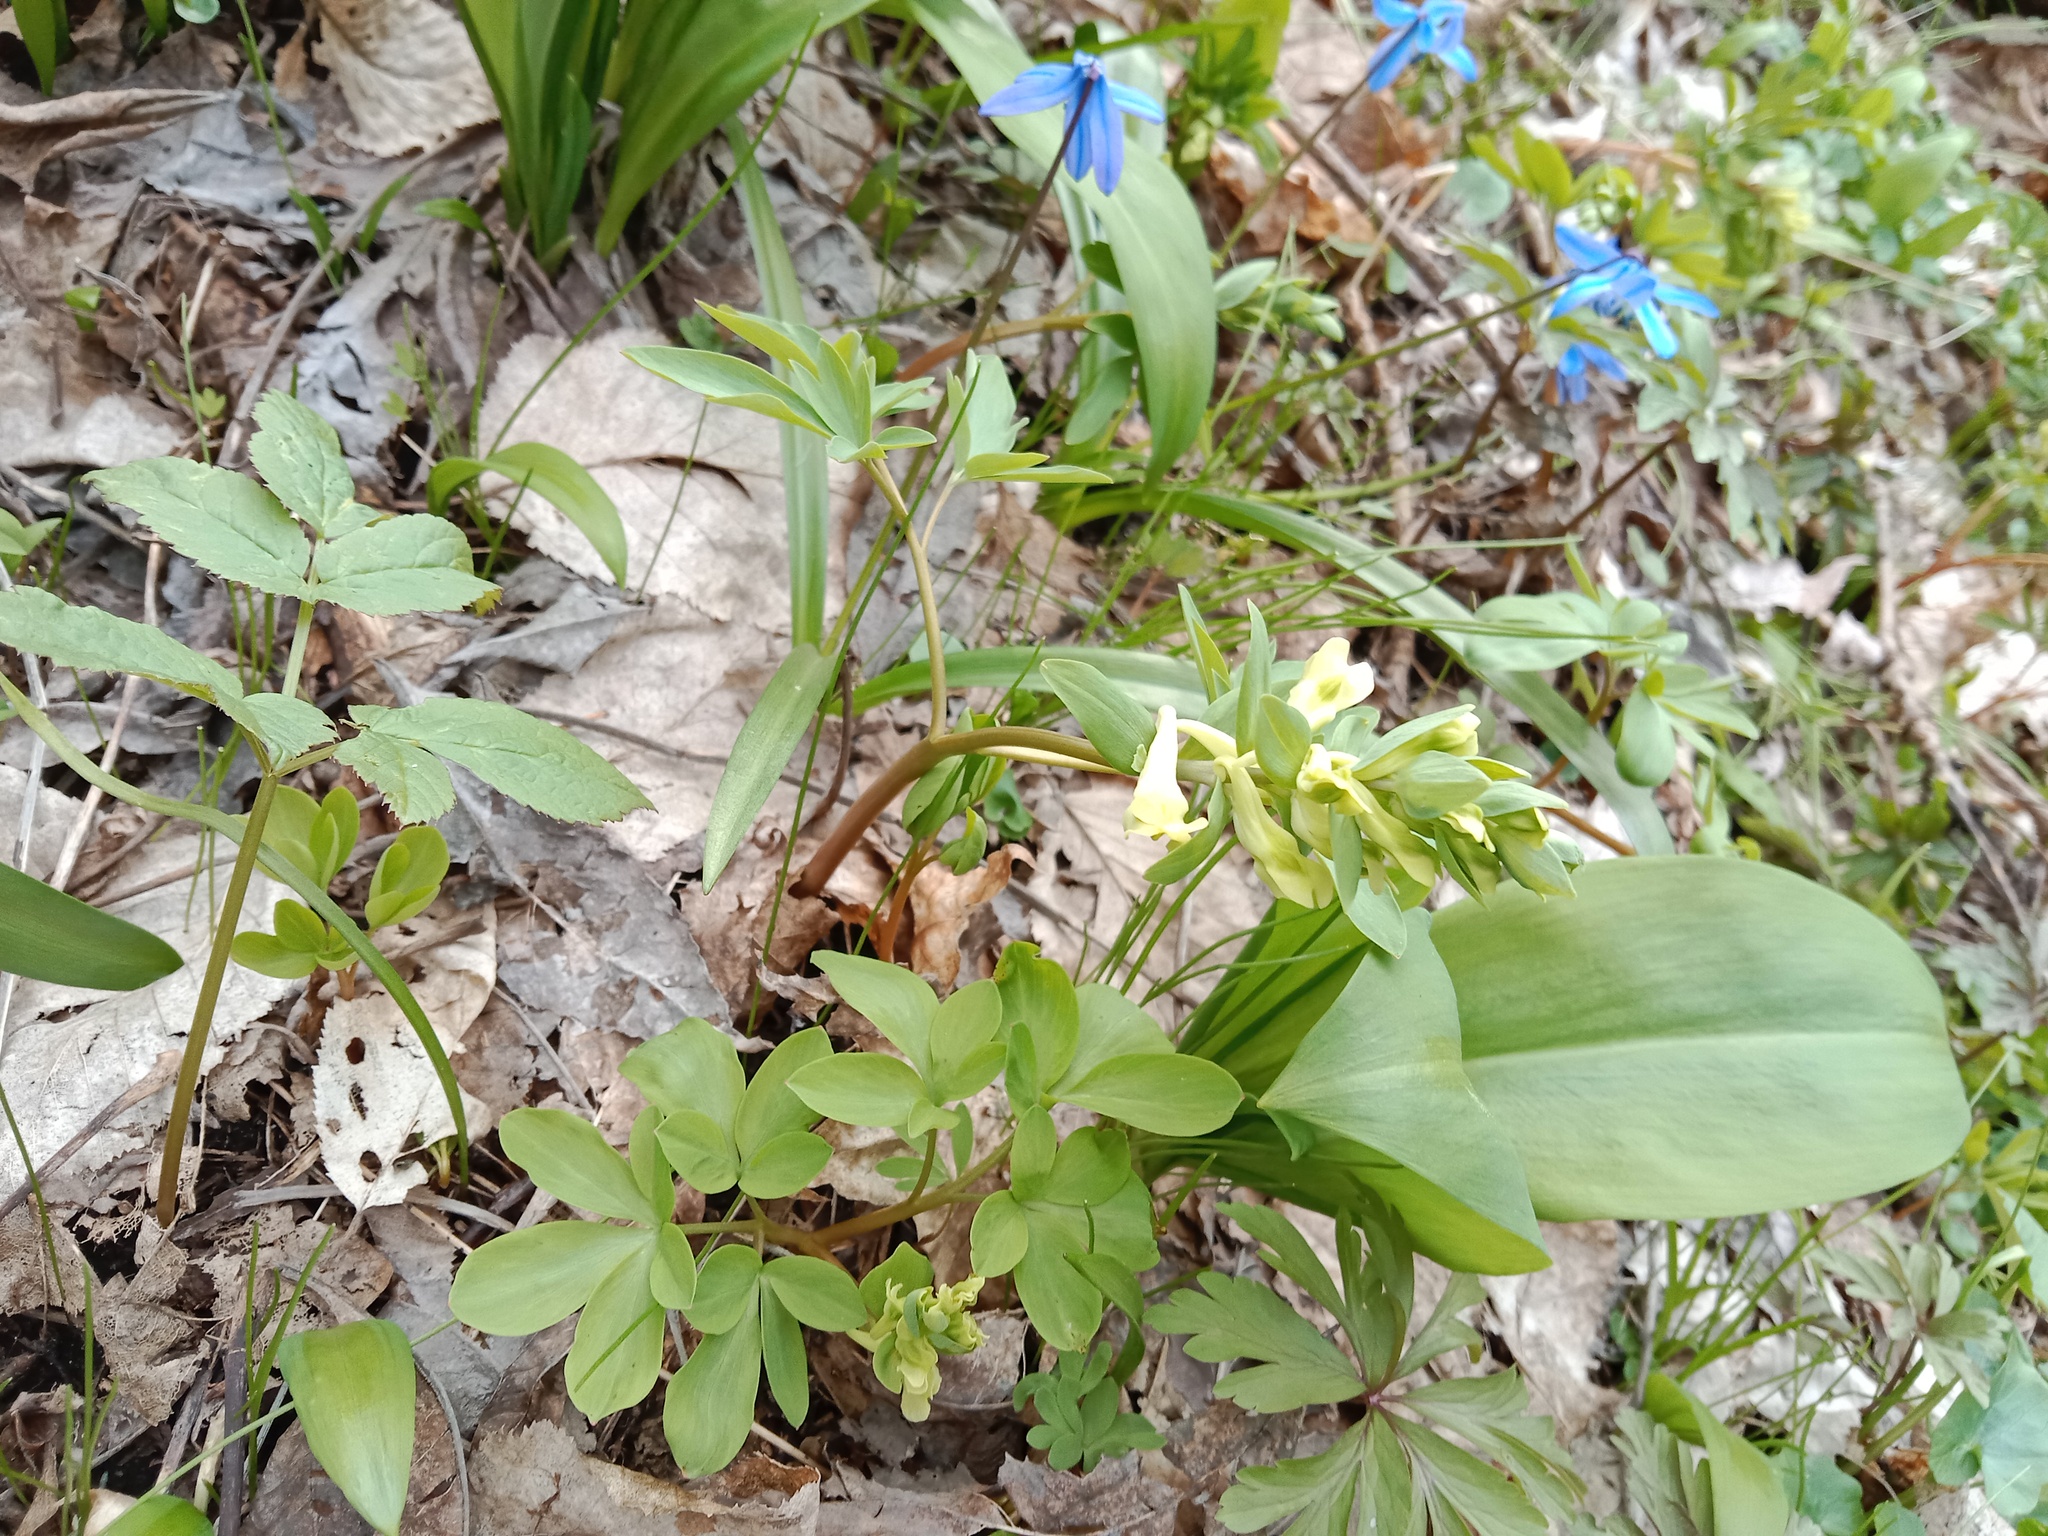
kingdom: Plantae
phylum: Tracheophyta
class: Magnoliopsida
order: Ranunculales
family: Papaveraceae
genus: Corydalis
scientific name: Corydalis cava
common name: Hollowroot
